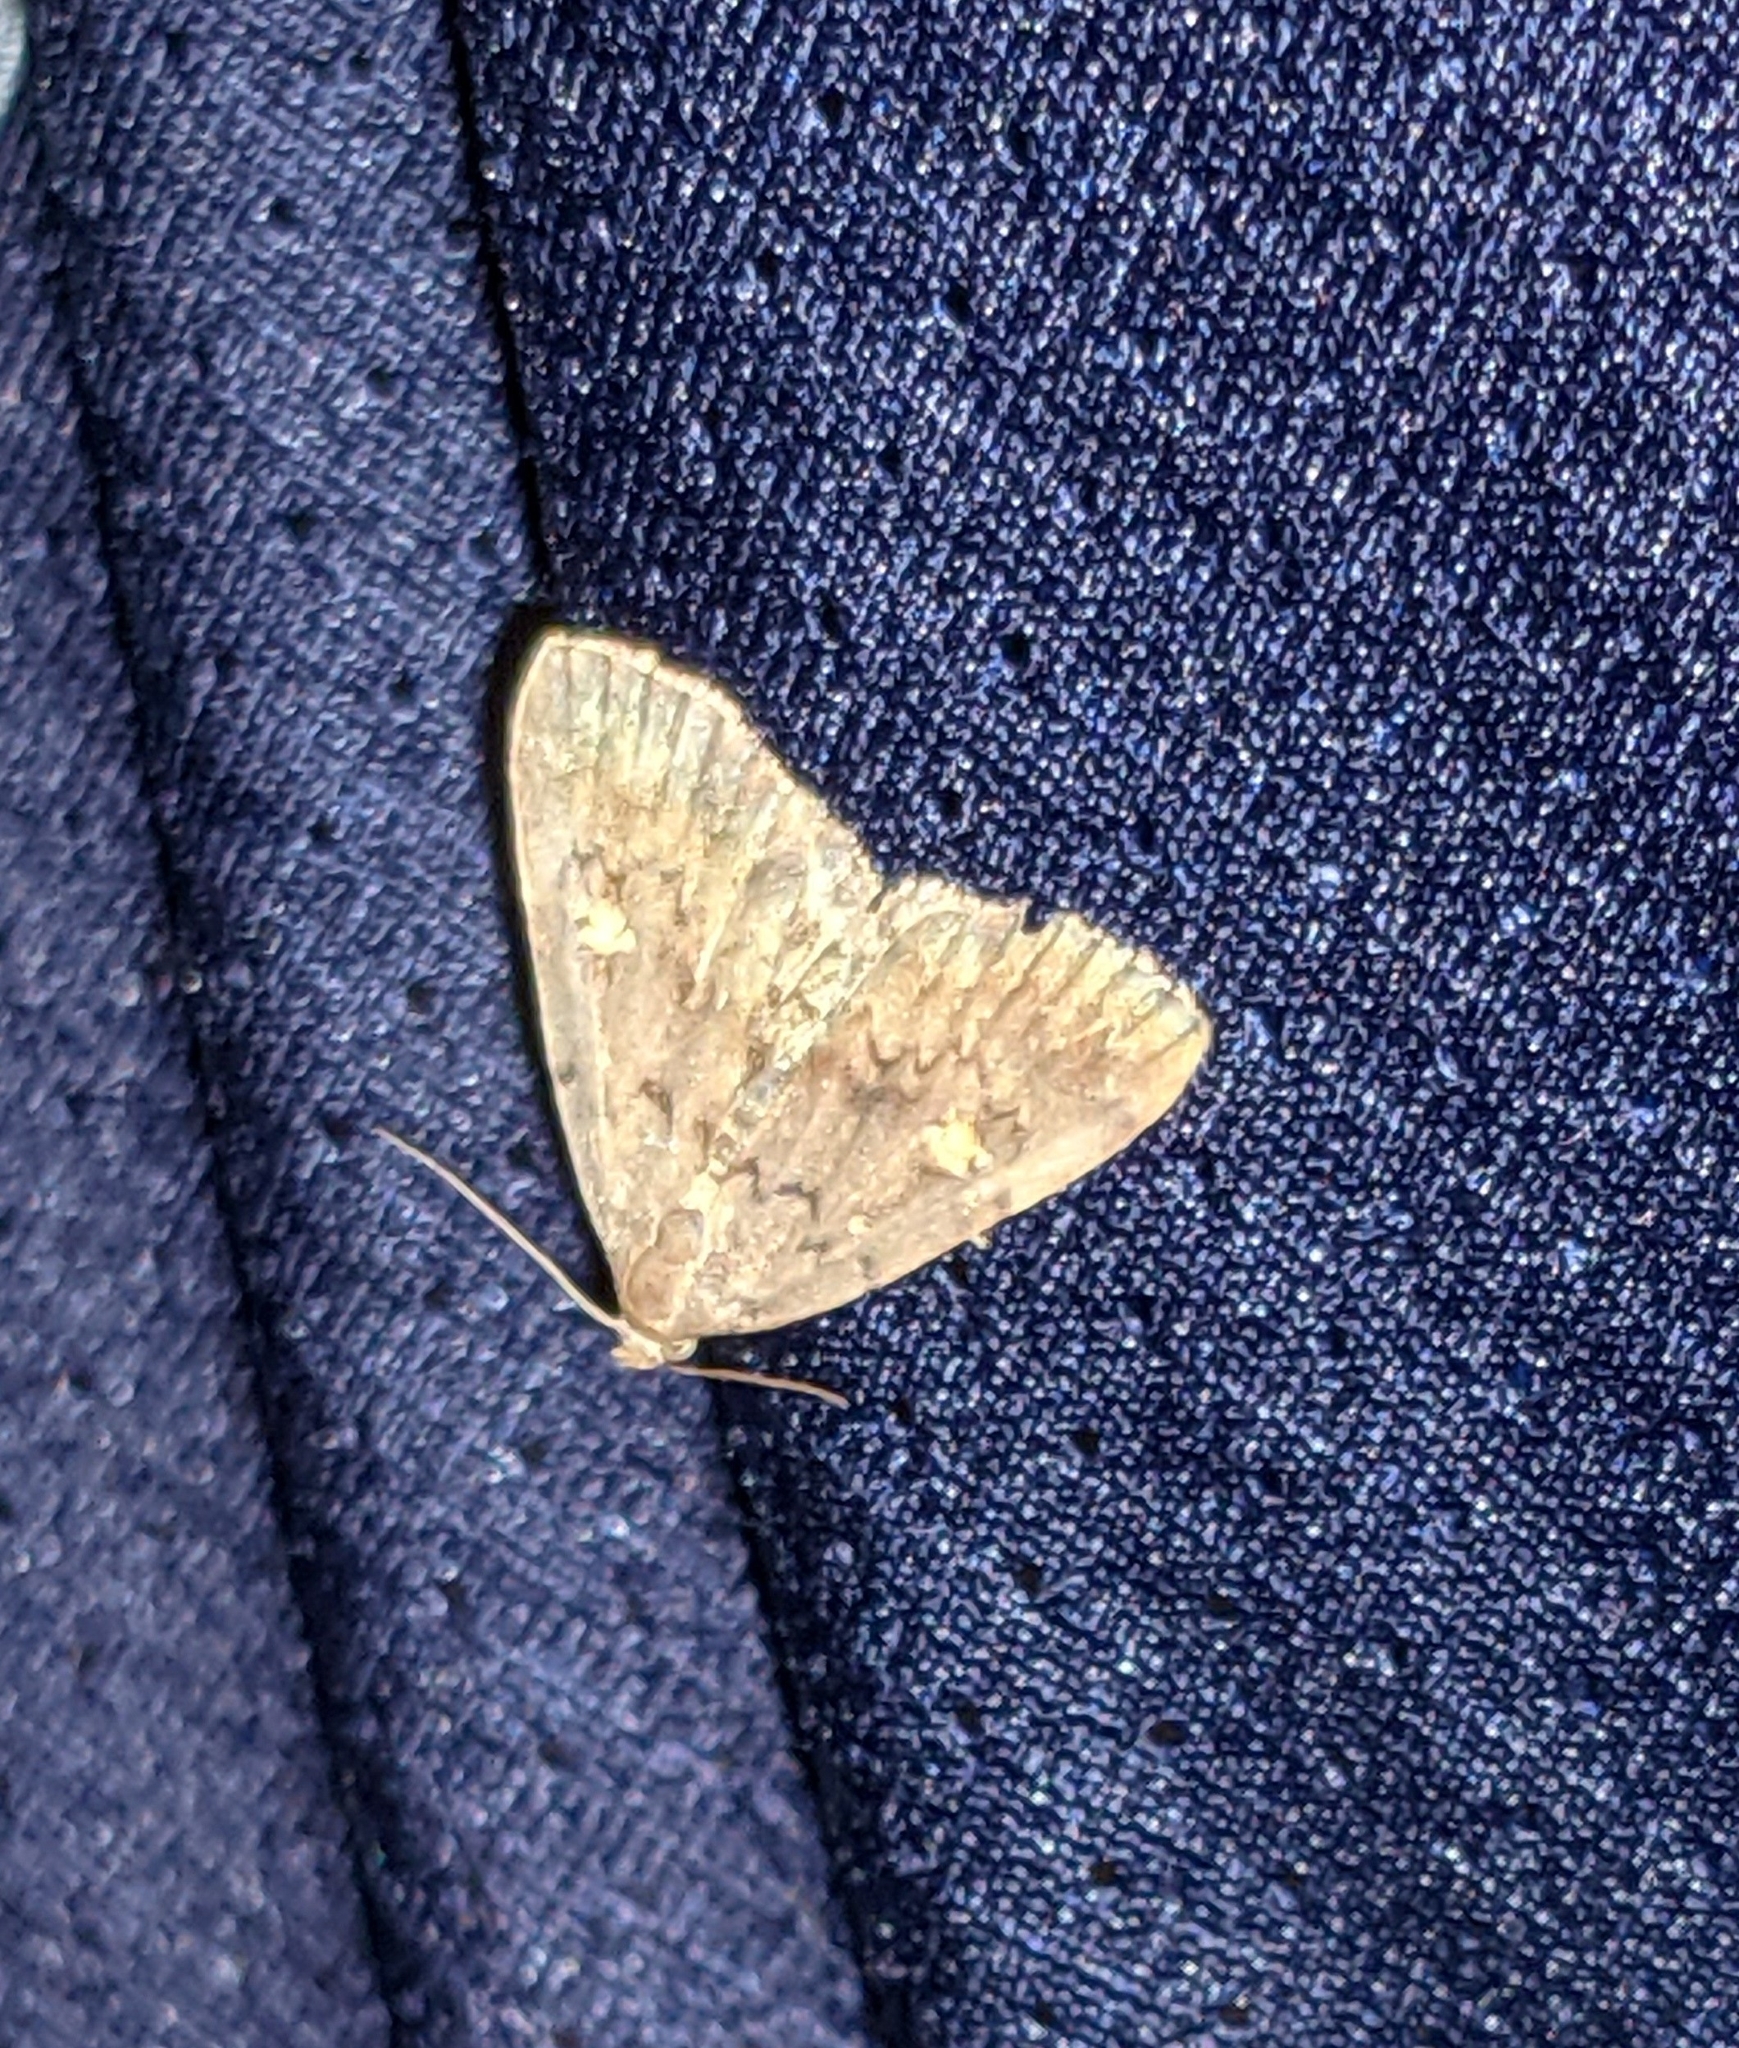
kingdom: Animalia
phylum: Arthropoda
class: Insecta
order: Lepidoptera
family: Erebidae
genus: Idia
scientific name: Idia aemula
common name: Common idia moth
